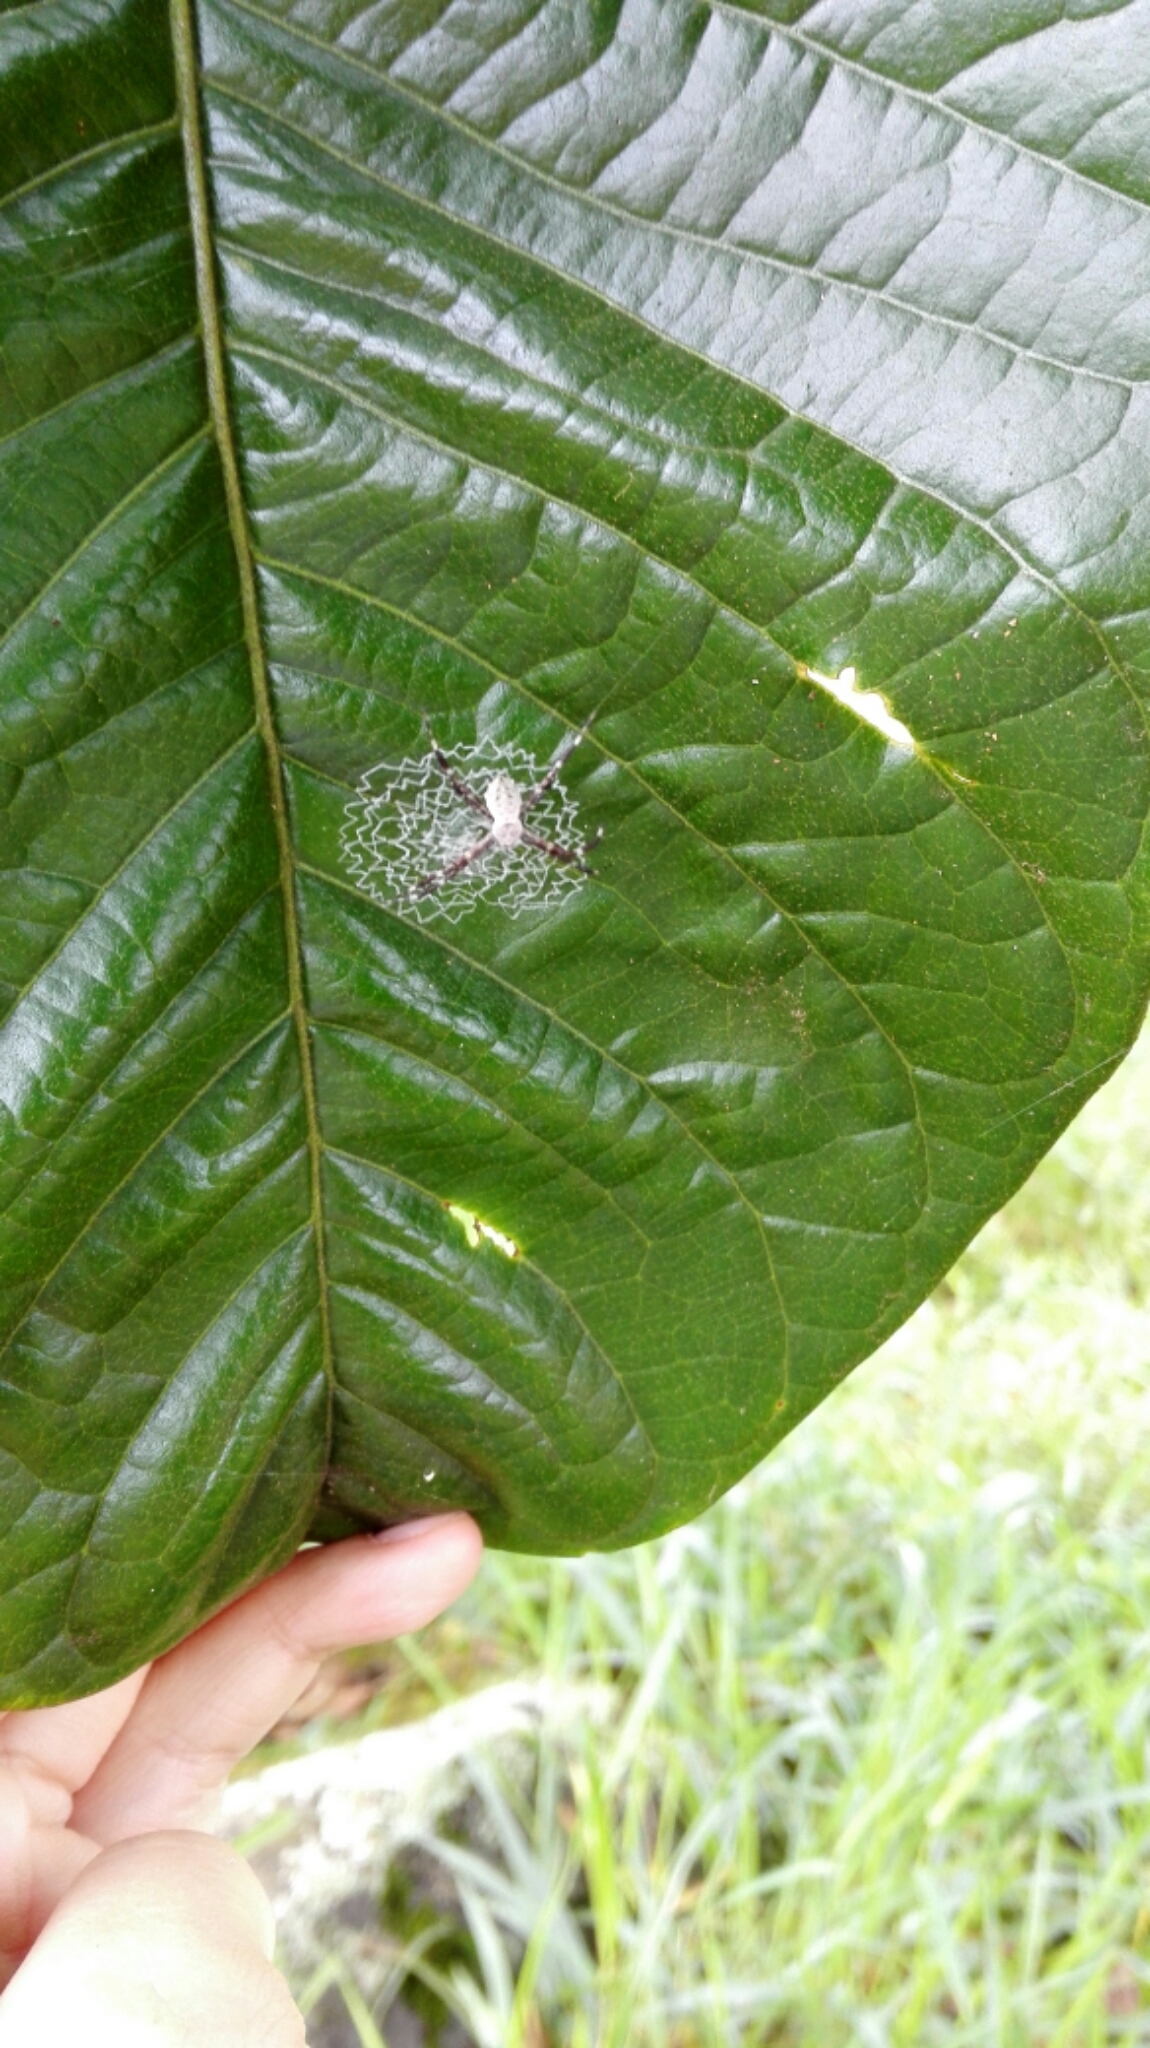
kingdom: Animalia
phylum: Arthropoda
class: Arachnida
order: Araneae
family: Araneidae
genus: Argiope
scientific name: Argiope submaronica
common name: Orb weavers
